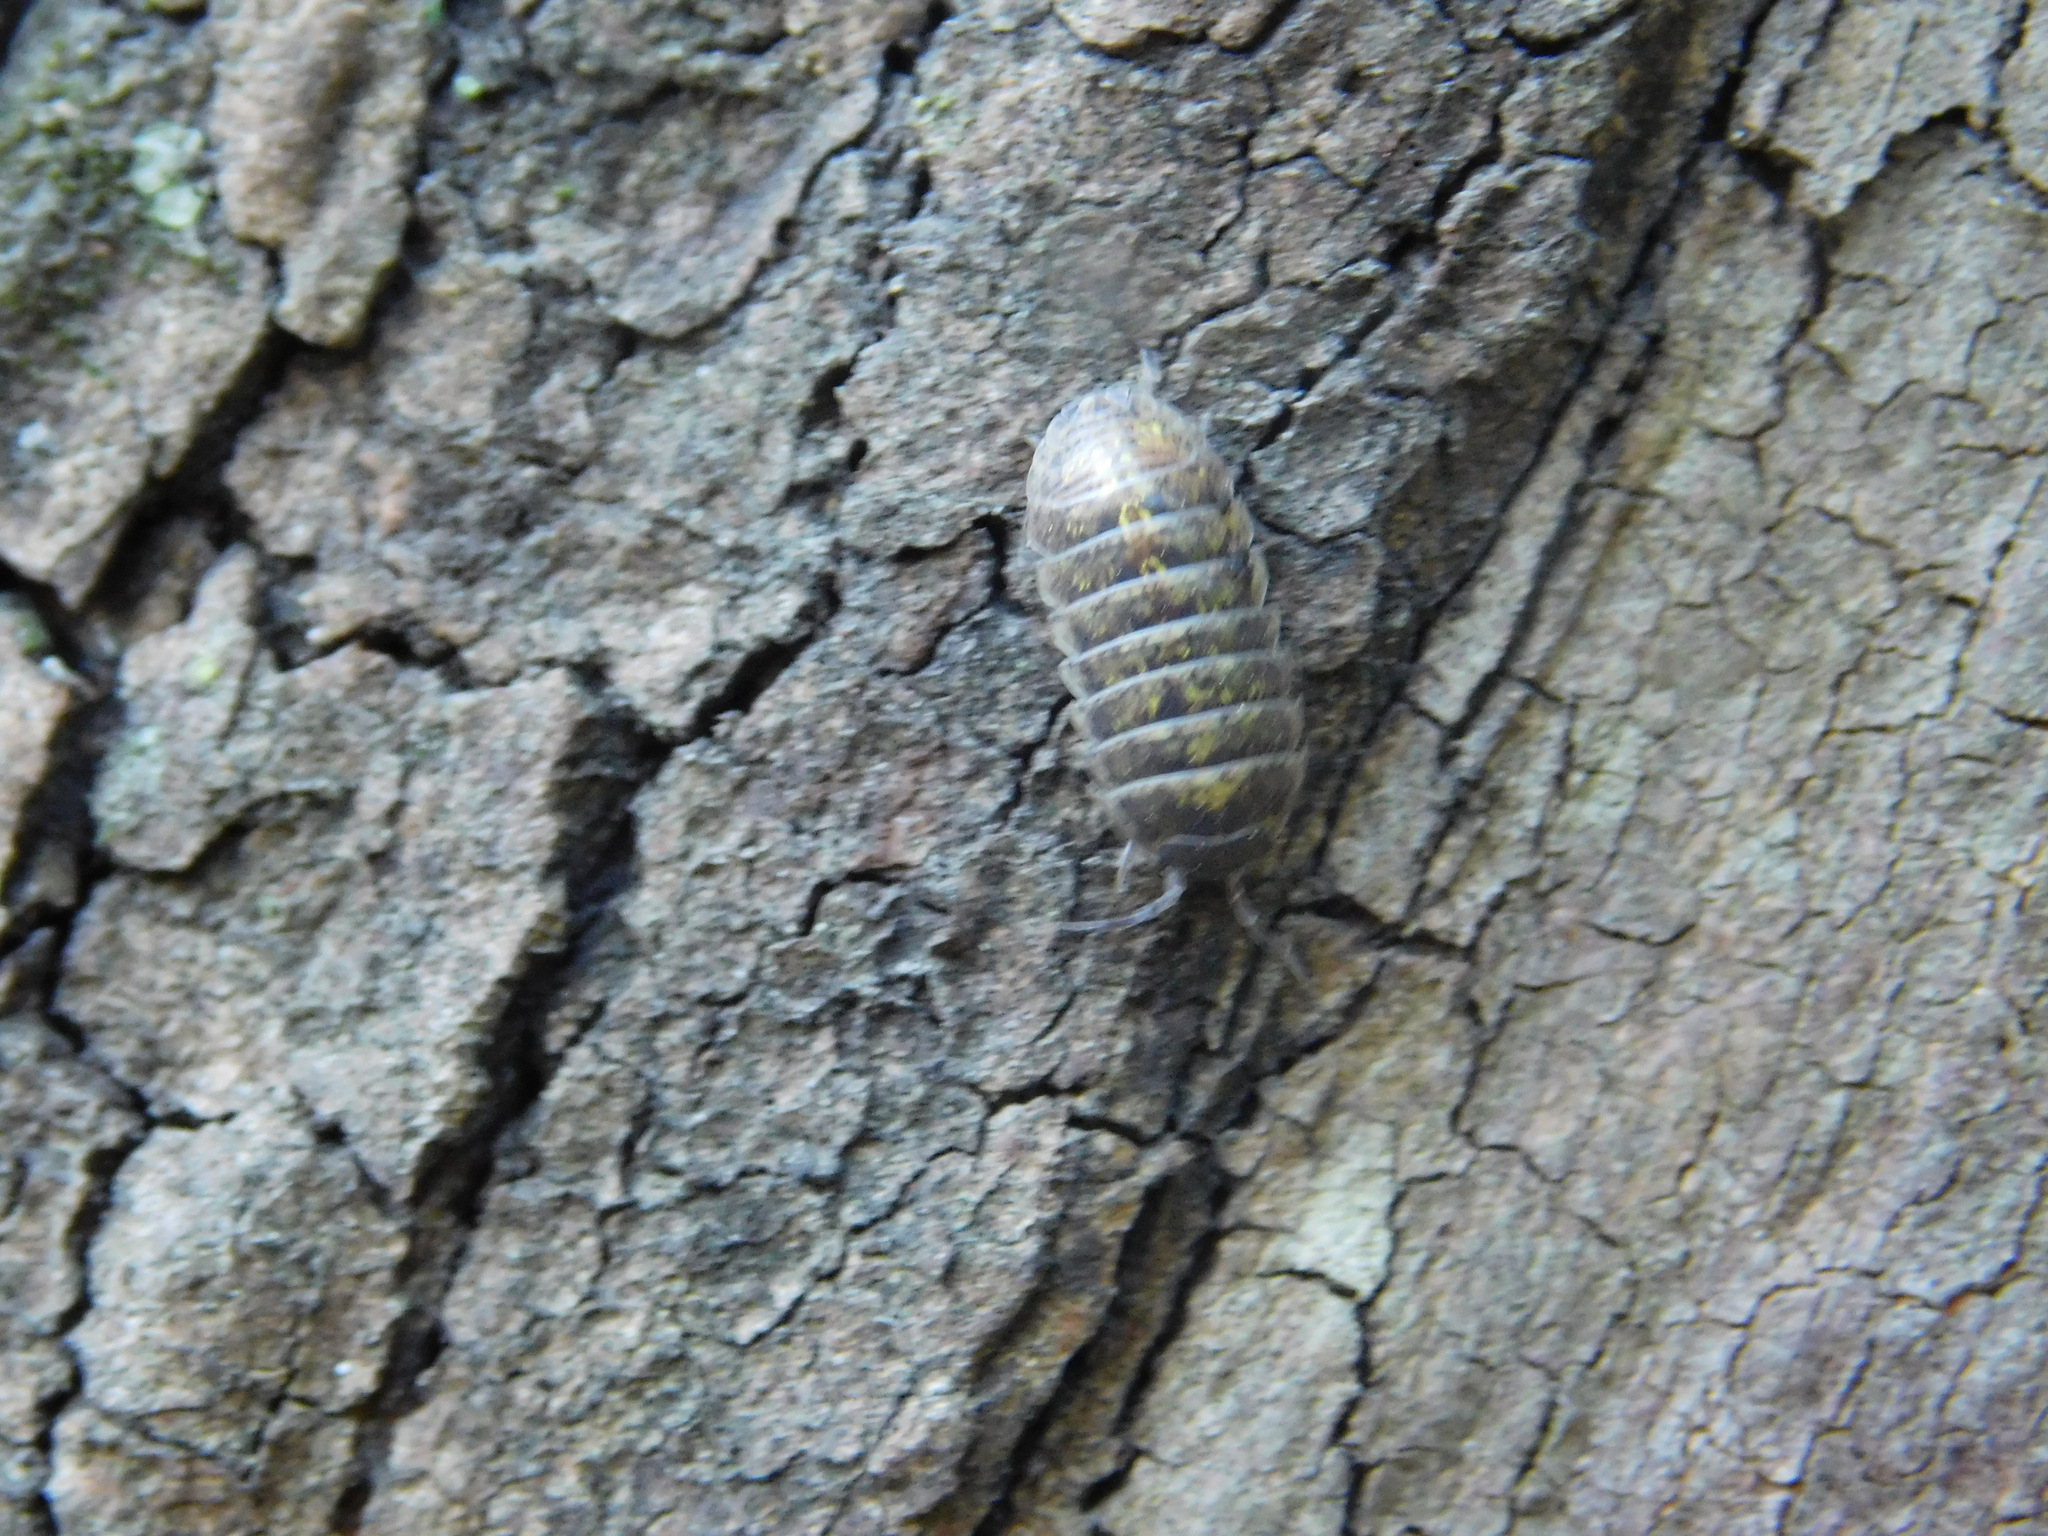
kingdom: Animalia
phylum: Arthropoda
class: Malacostraca
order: Isopoda
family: Armadillidiidae
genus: Armadillidium
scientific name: Armadillidium vulgare
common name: Common pill woodlouse
